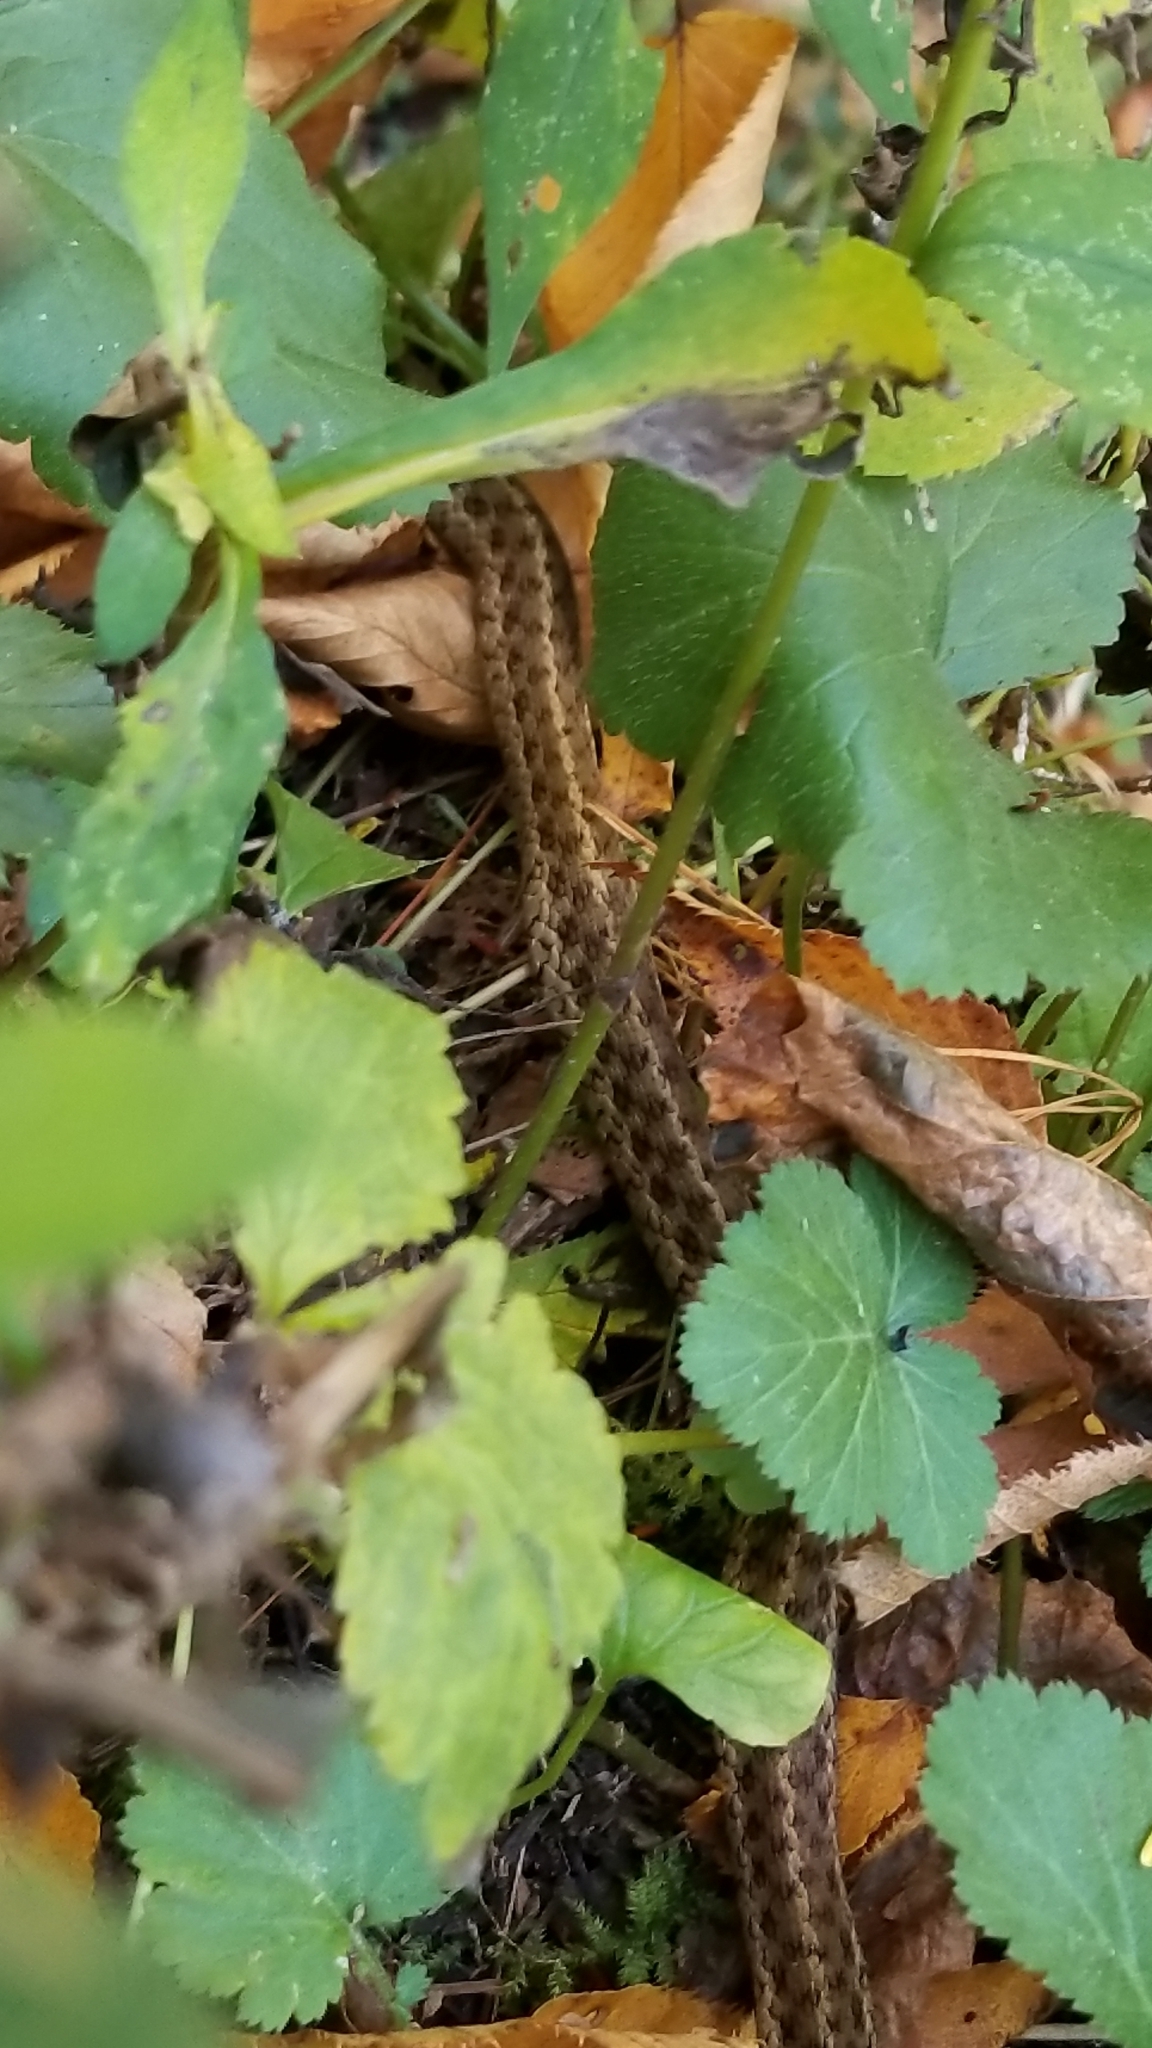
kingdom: Animalia
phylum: Chordata
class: Squamata
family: Colubridae
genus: Thamnophis
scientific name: Thamnophis sirtalis
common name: Common garter snake
